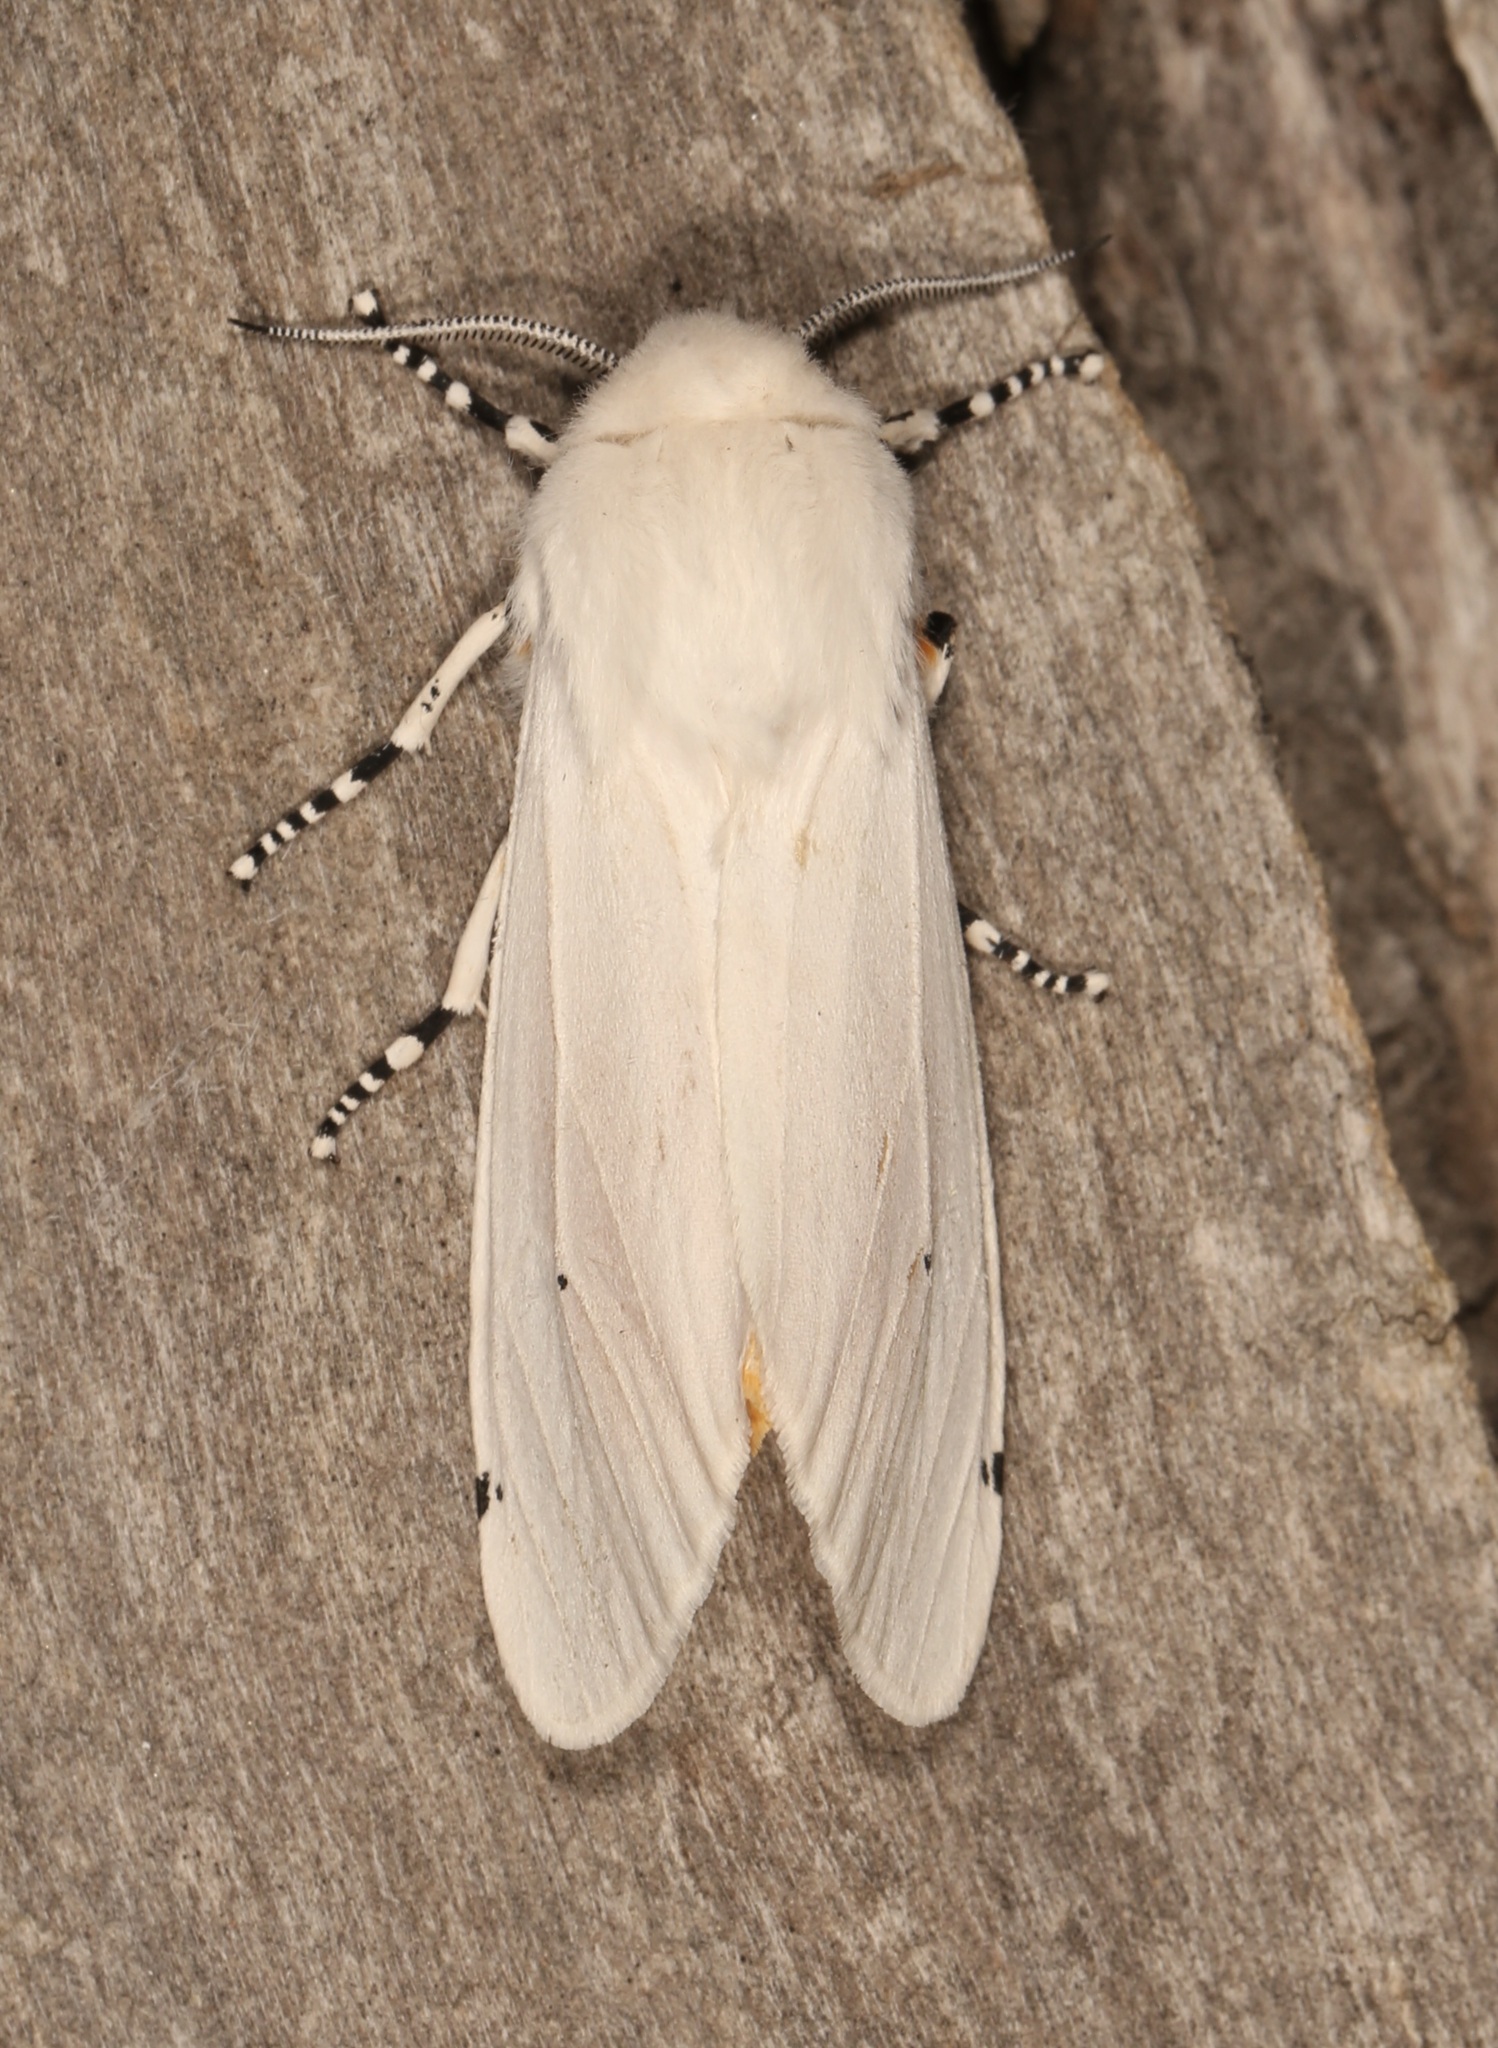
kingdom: Animalia
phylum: Arthropoda
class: Insecta
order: Lepidoptera
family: Erebidae
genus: Estigmene
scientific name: Estigmene acrea
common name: Salt marsh moth
